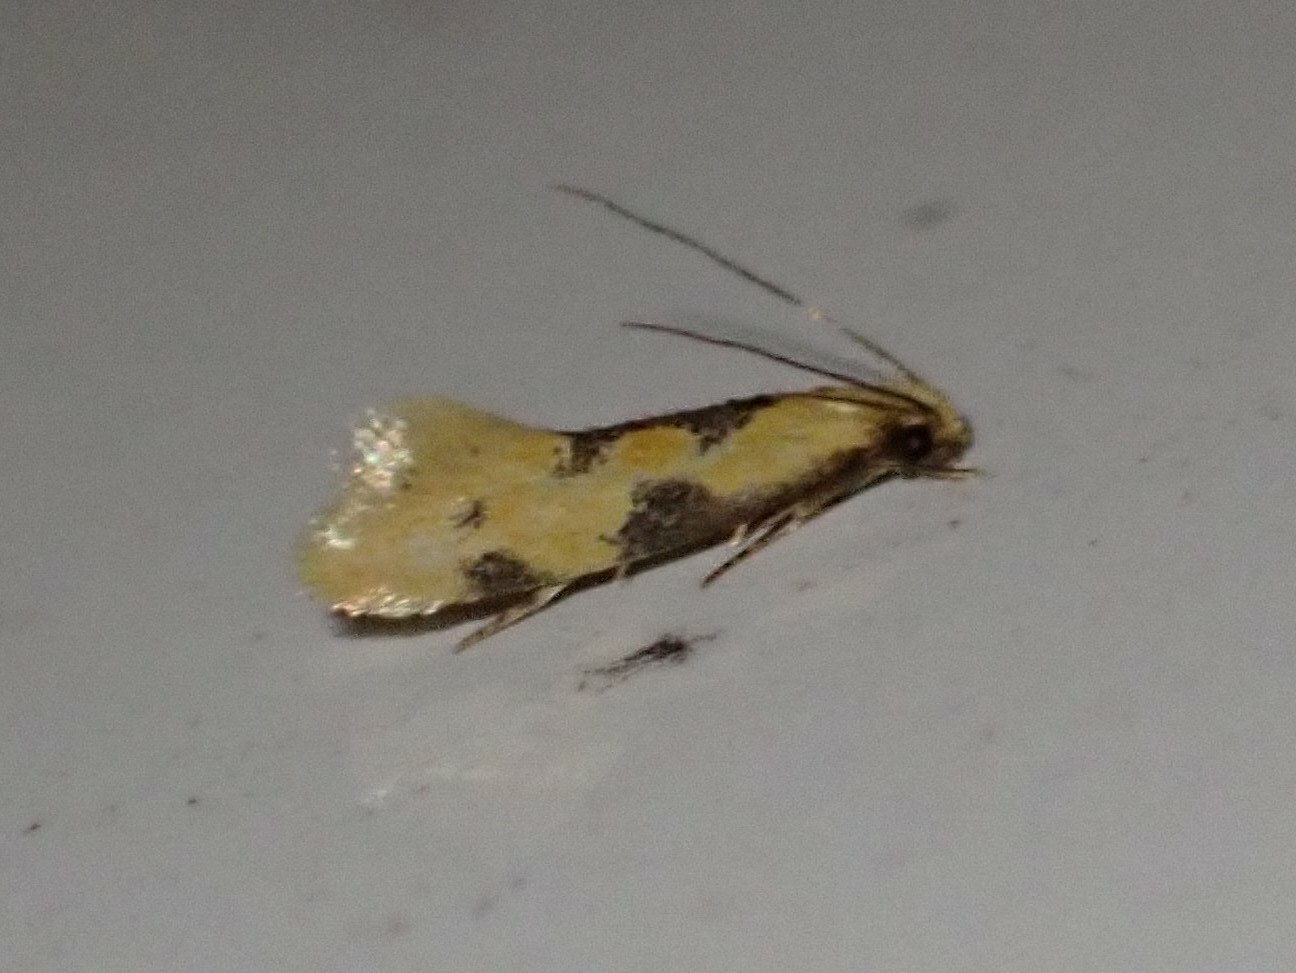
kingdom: Animalia
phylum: Arthropoda
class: Insecta
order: Lepidoptera
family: Meessiidae
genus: Hybroma
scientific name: Hybroma servulella
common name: Yellow wave moth
